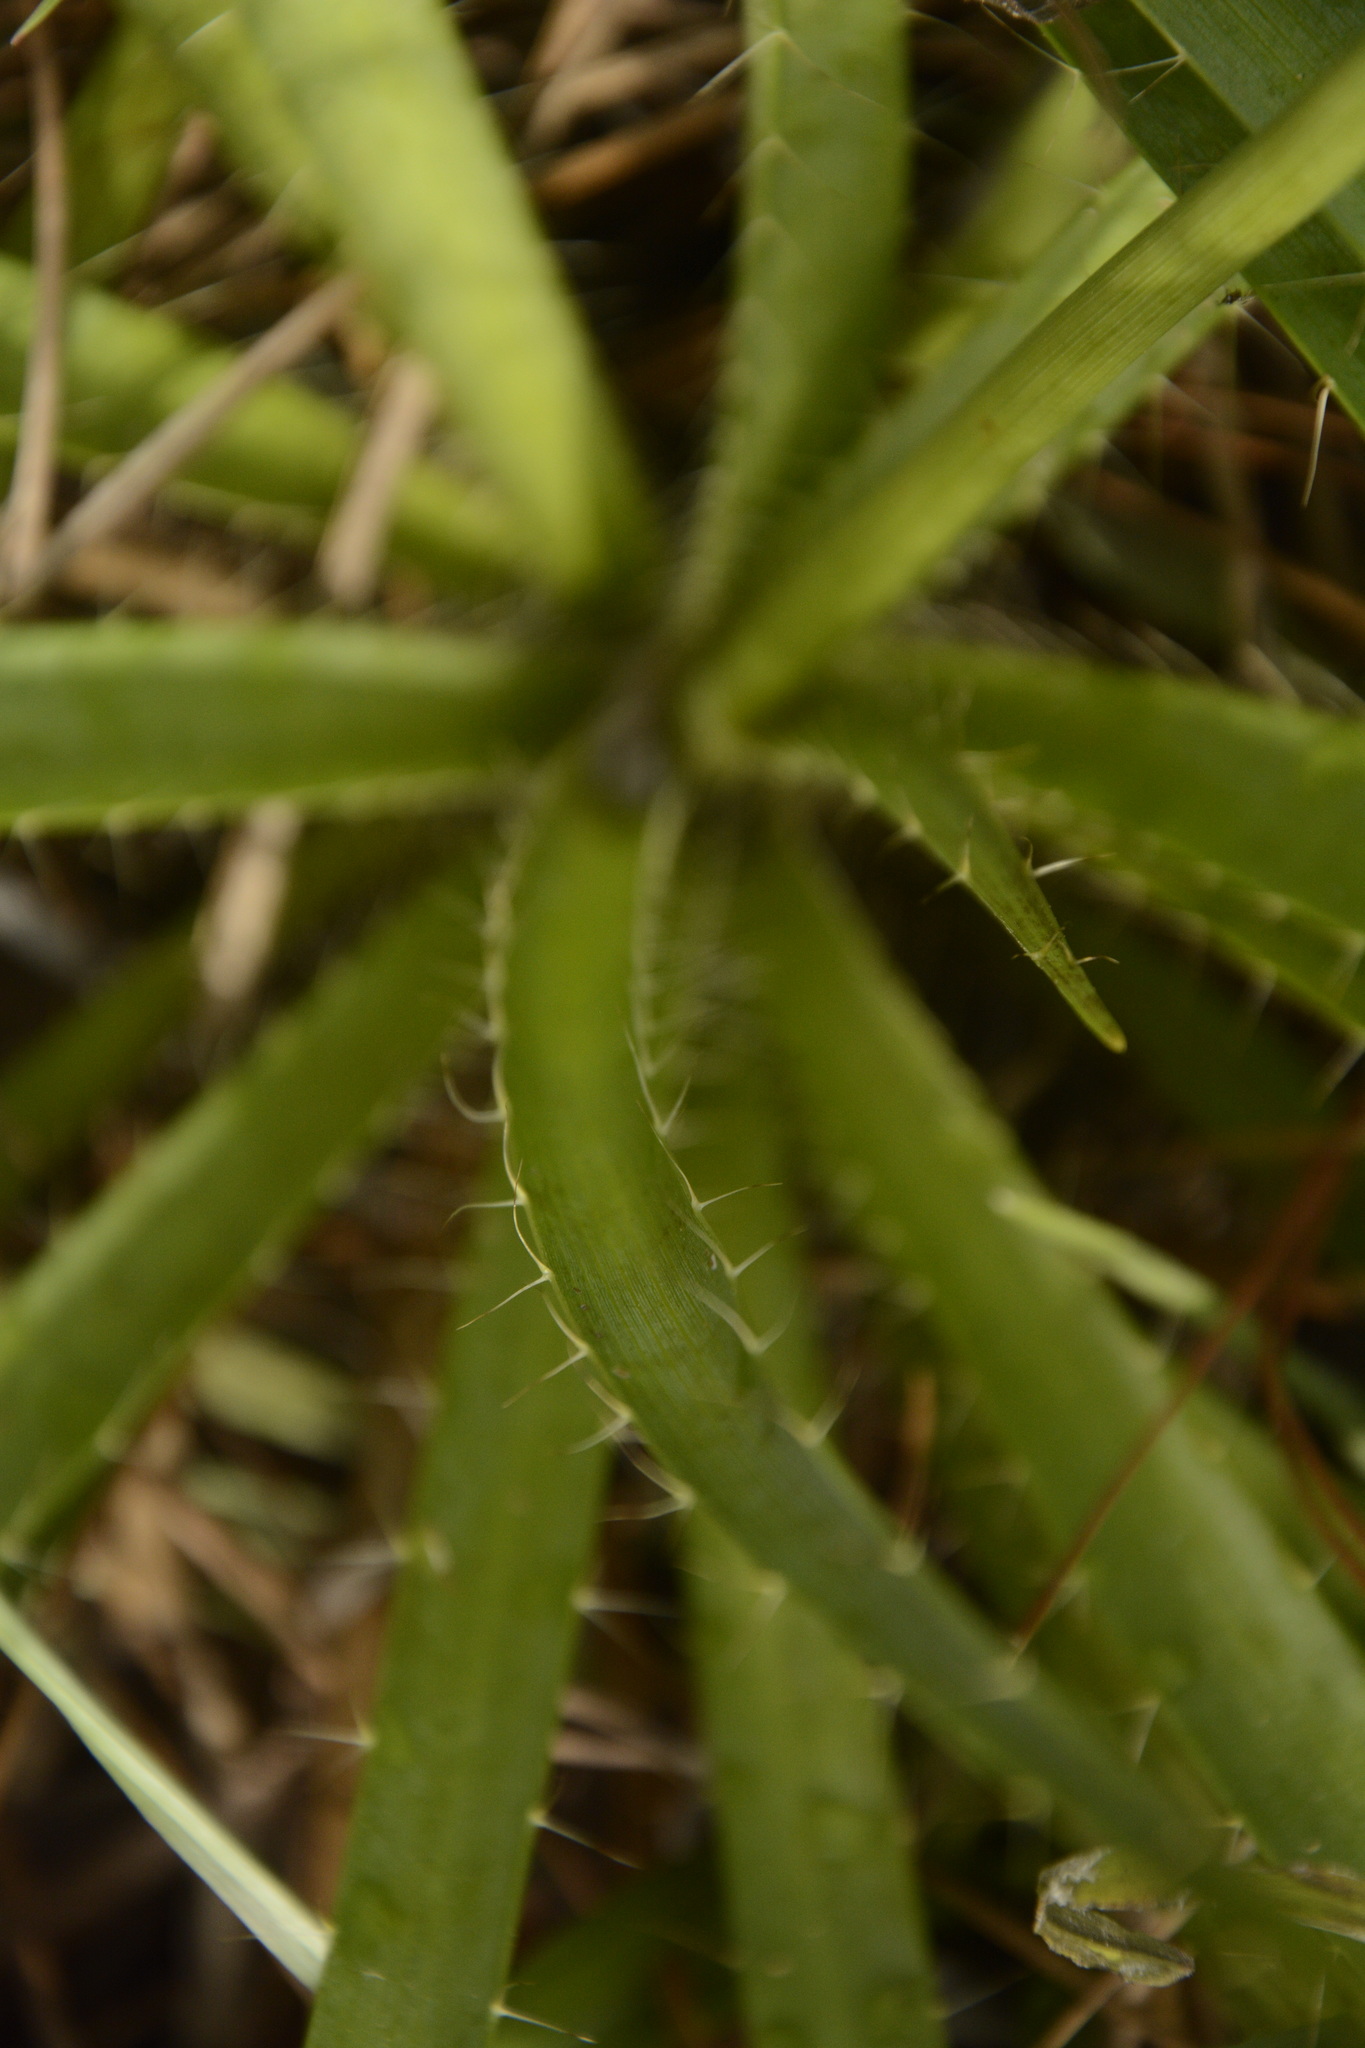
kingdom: Plantae
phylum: Tracheophyta
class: Magnoliopsida
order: Apiales
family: Apiaceae
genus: Eryngium
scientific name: Eryngium yuccifolium
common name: Button eryngo
